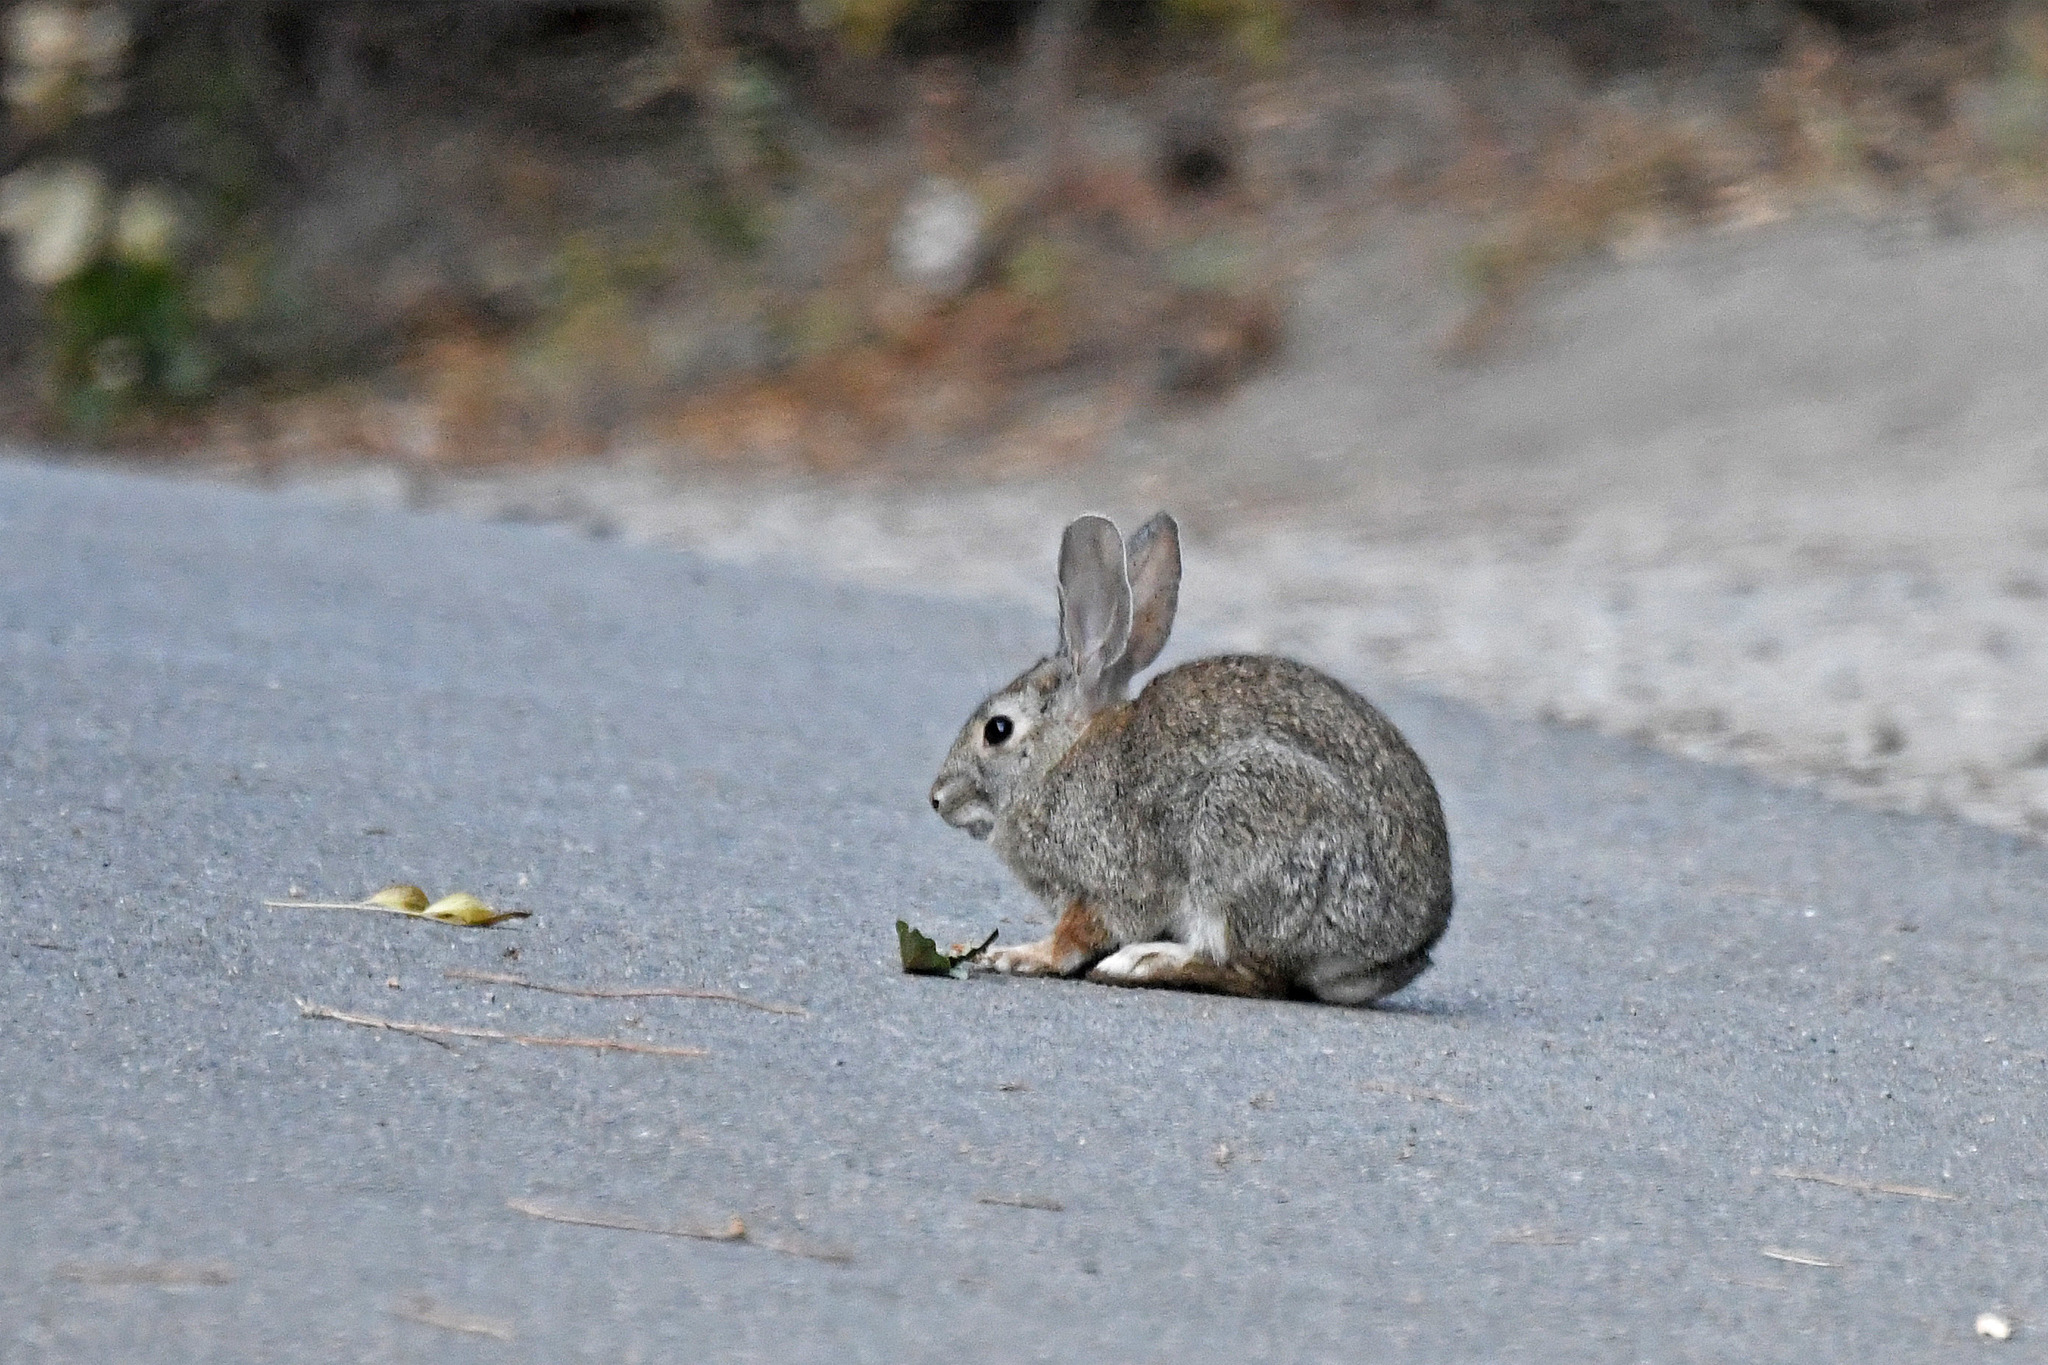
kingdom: Animalia
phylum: Chordata
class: Mammalia
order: Lagomorpha
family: Leporidae
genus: Sylvilagus
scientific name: Sylvilagus bachmani
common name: Brush rabbit
